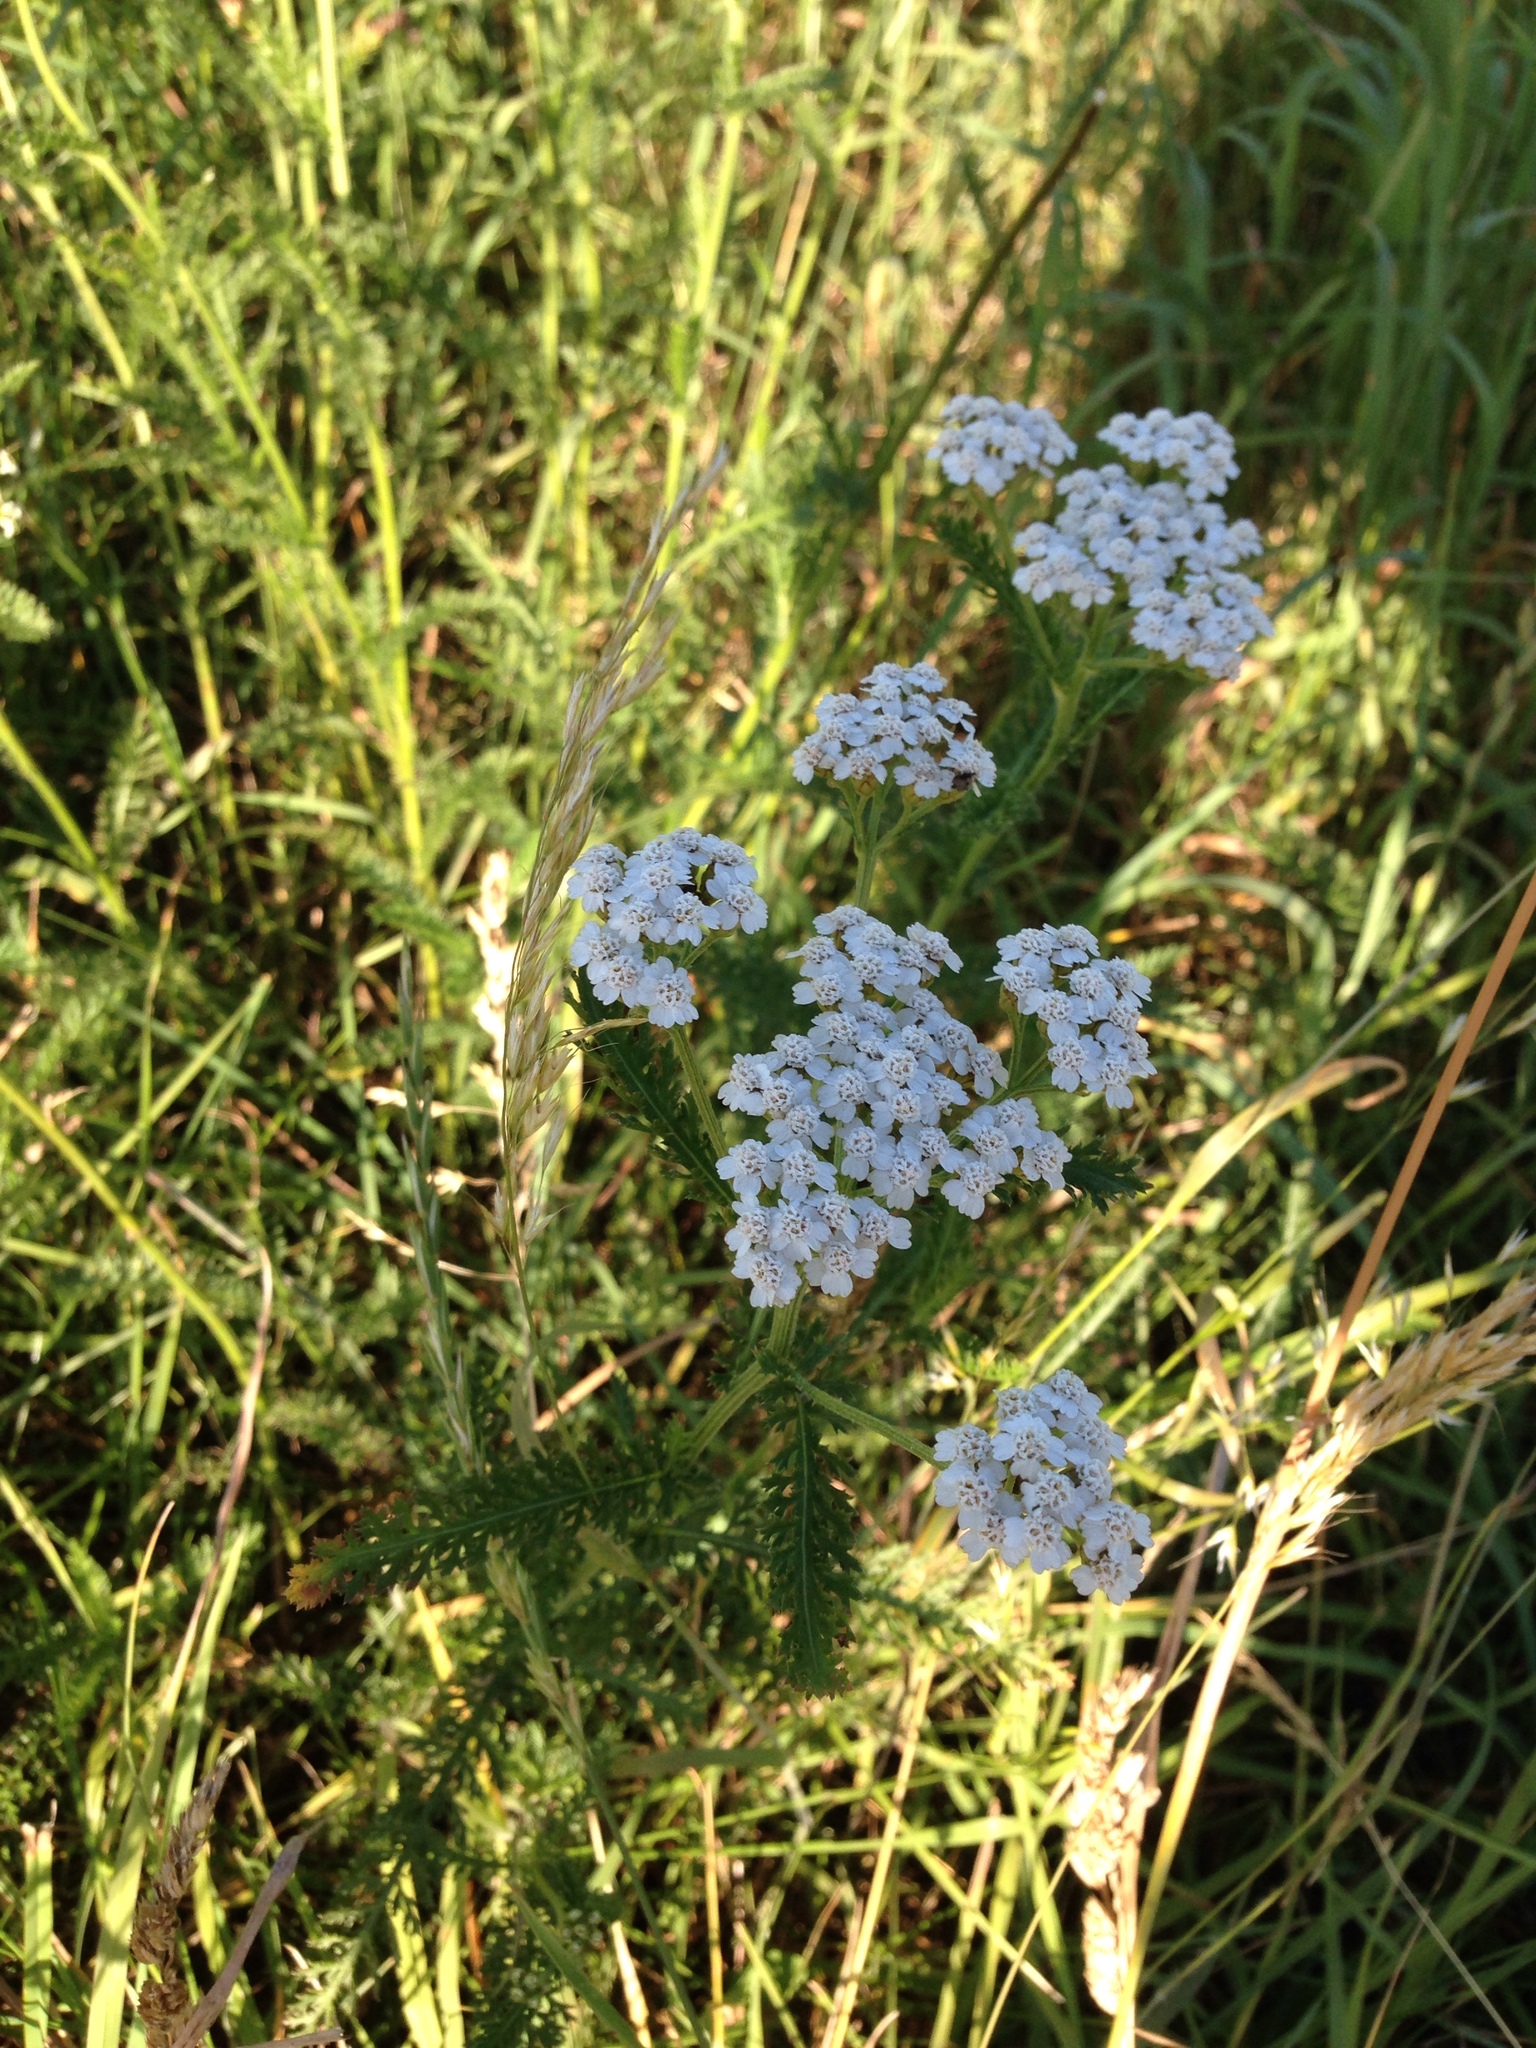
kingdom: Plantae
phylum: Tracheophyta
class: Magnoliopsida
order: Asterales
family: Asteraceae
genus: Achillea
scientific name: Achillea millefolium
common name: Yarrow
